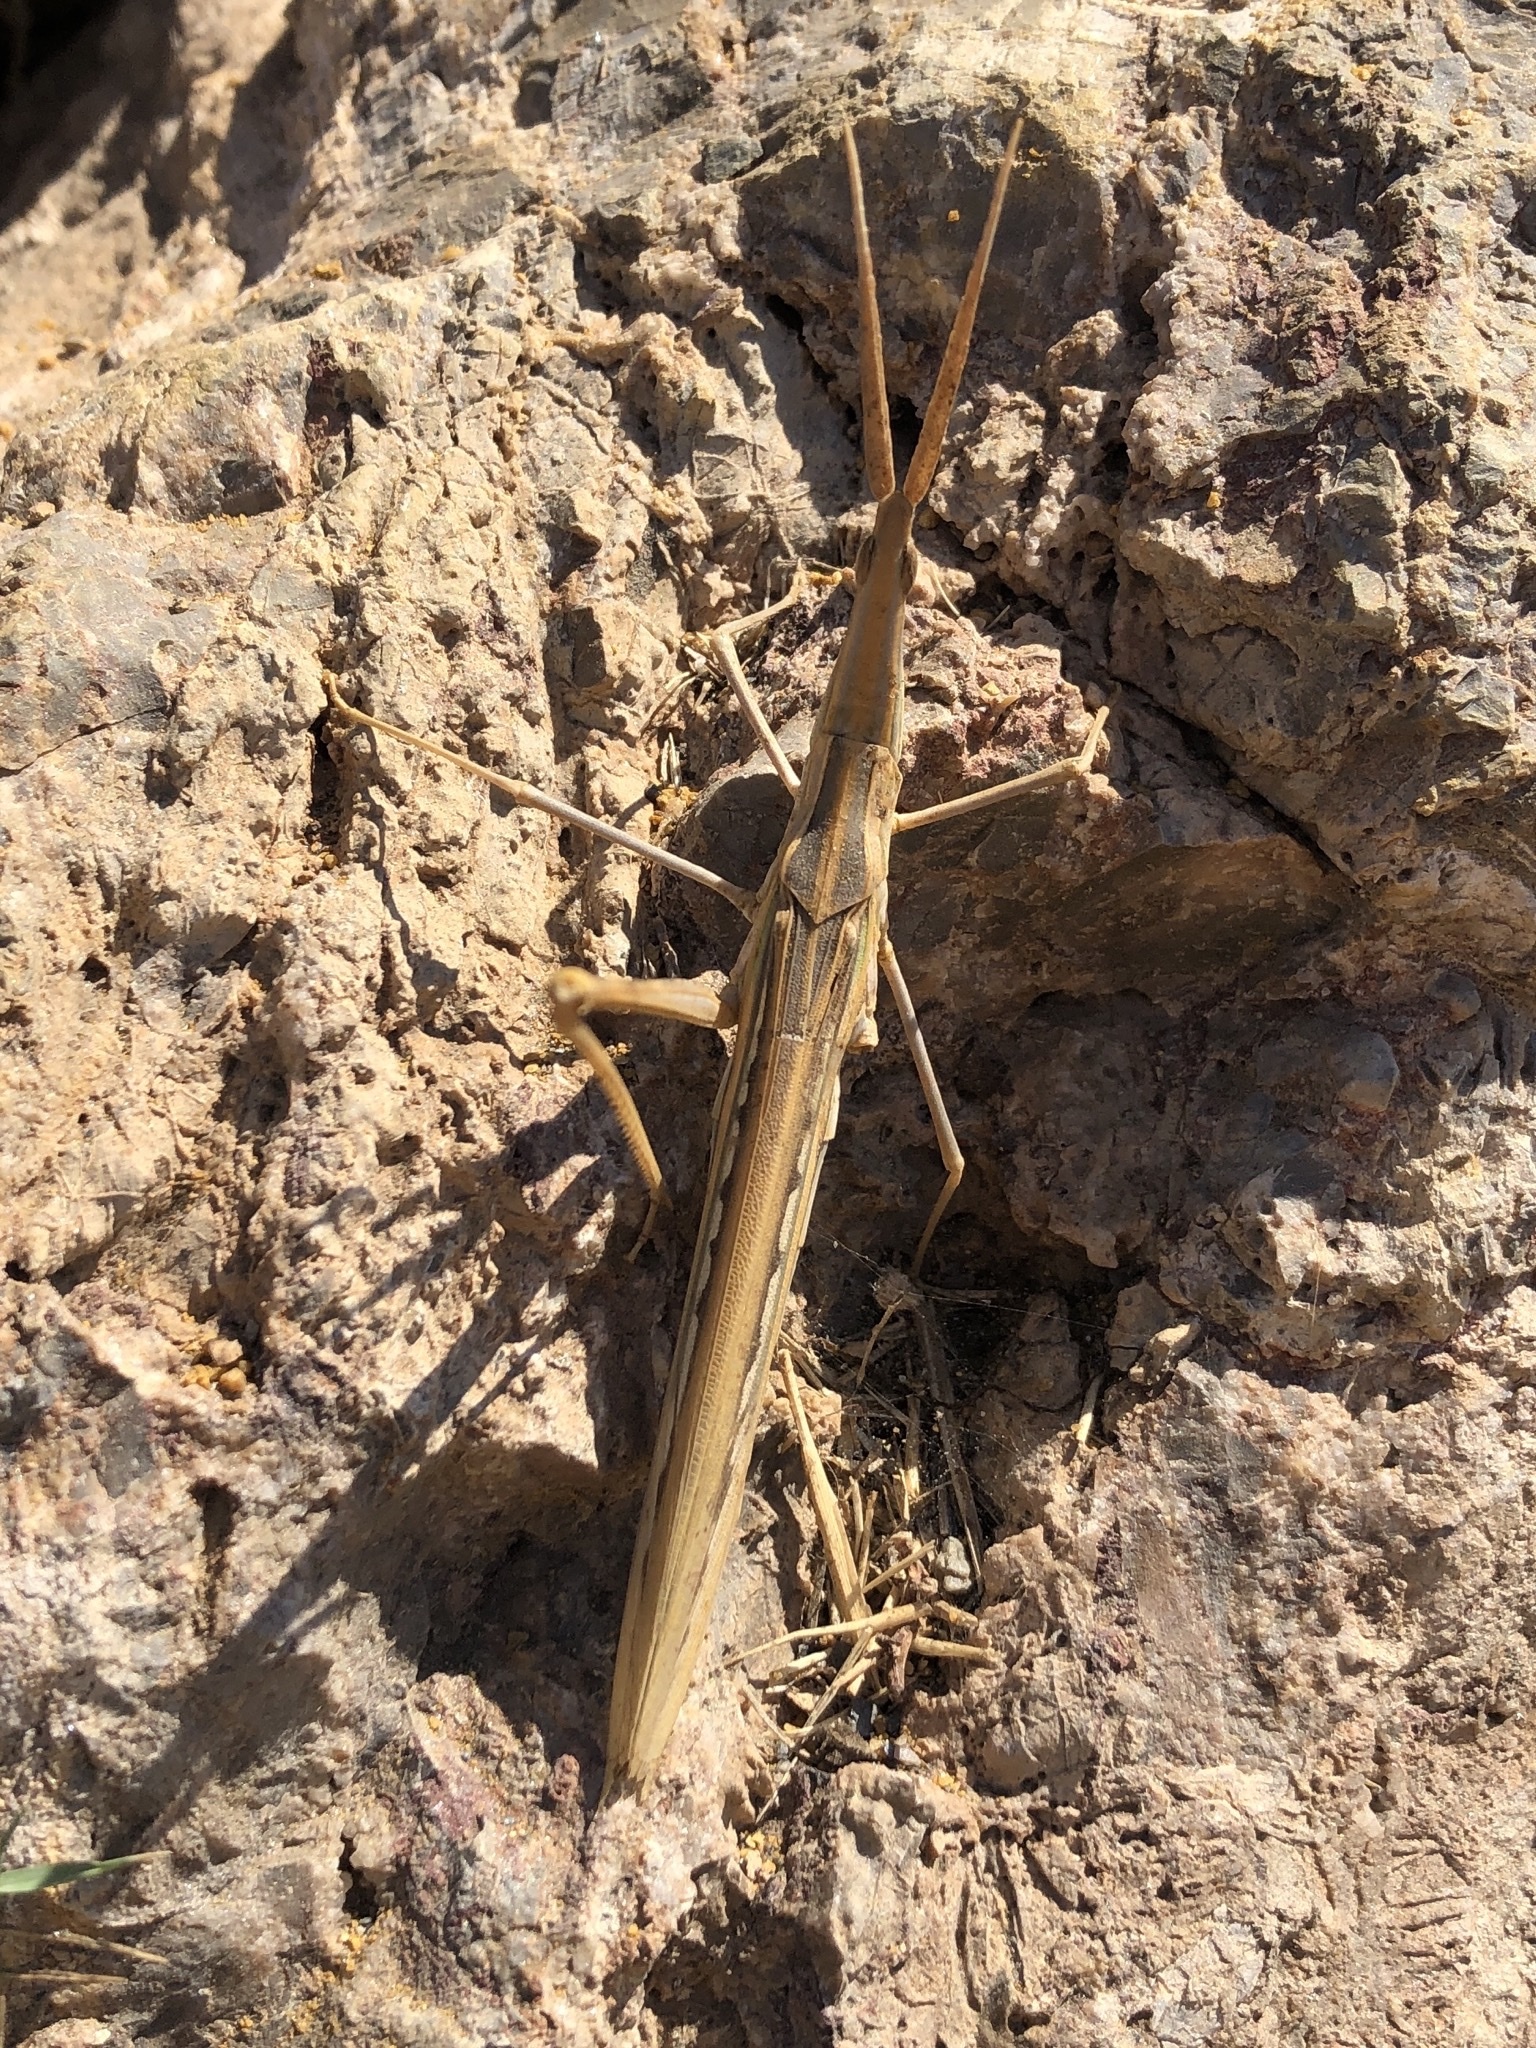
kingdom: Animalia
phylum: Arthropoda
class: Insecta
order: Orthoptera
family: Acrididae
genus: Truxalis
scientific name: Truxalis nasuta
